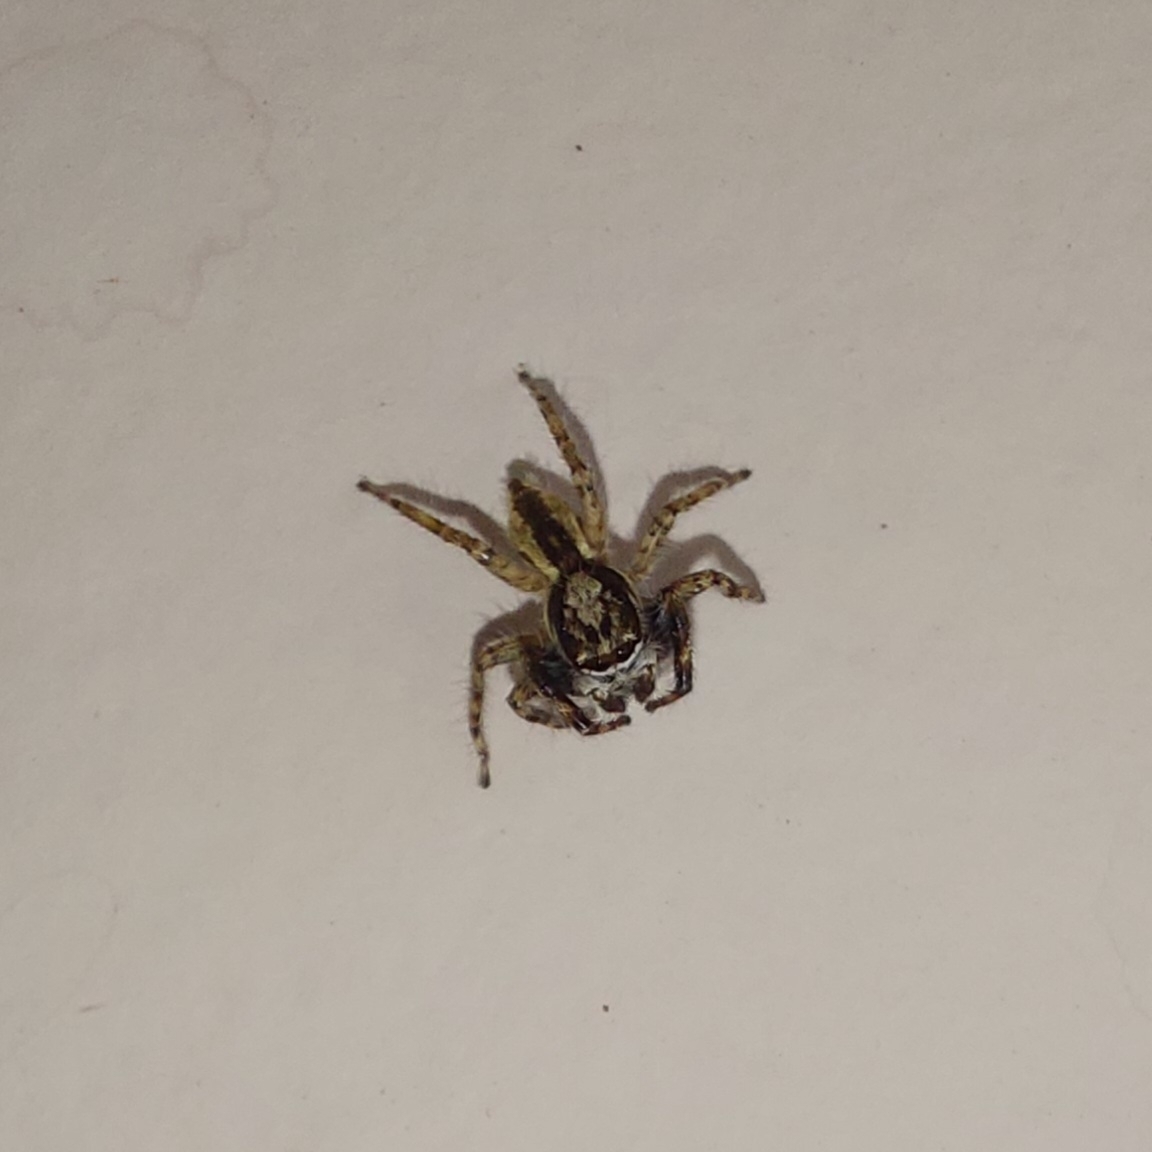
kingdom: Animalia
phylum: Arthropoda
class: Arachnida
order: Araneae
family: Salticidae
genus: Menemerus
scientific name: Menemerus bivittatus
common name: Gray wall jumper
